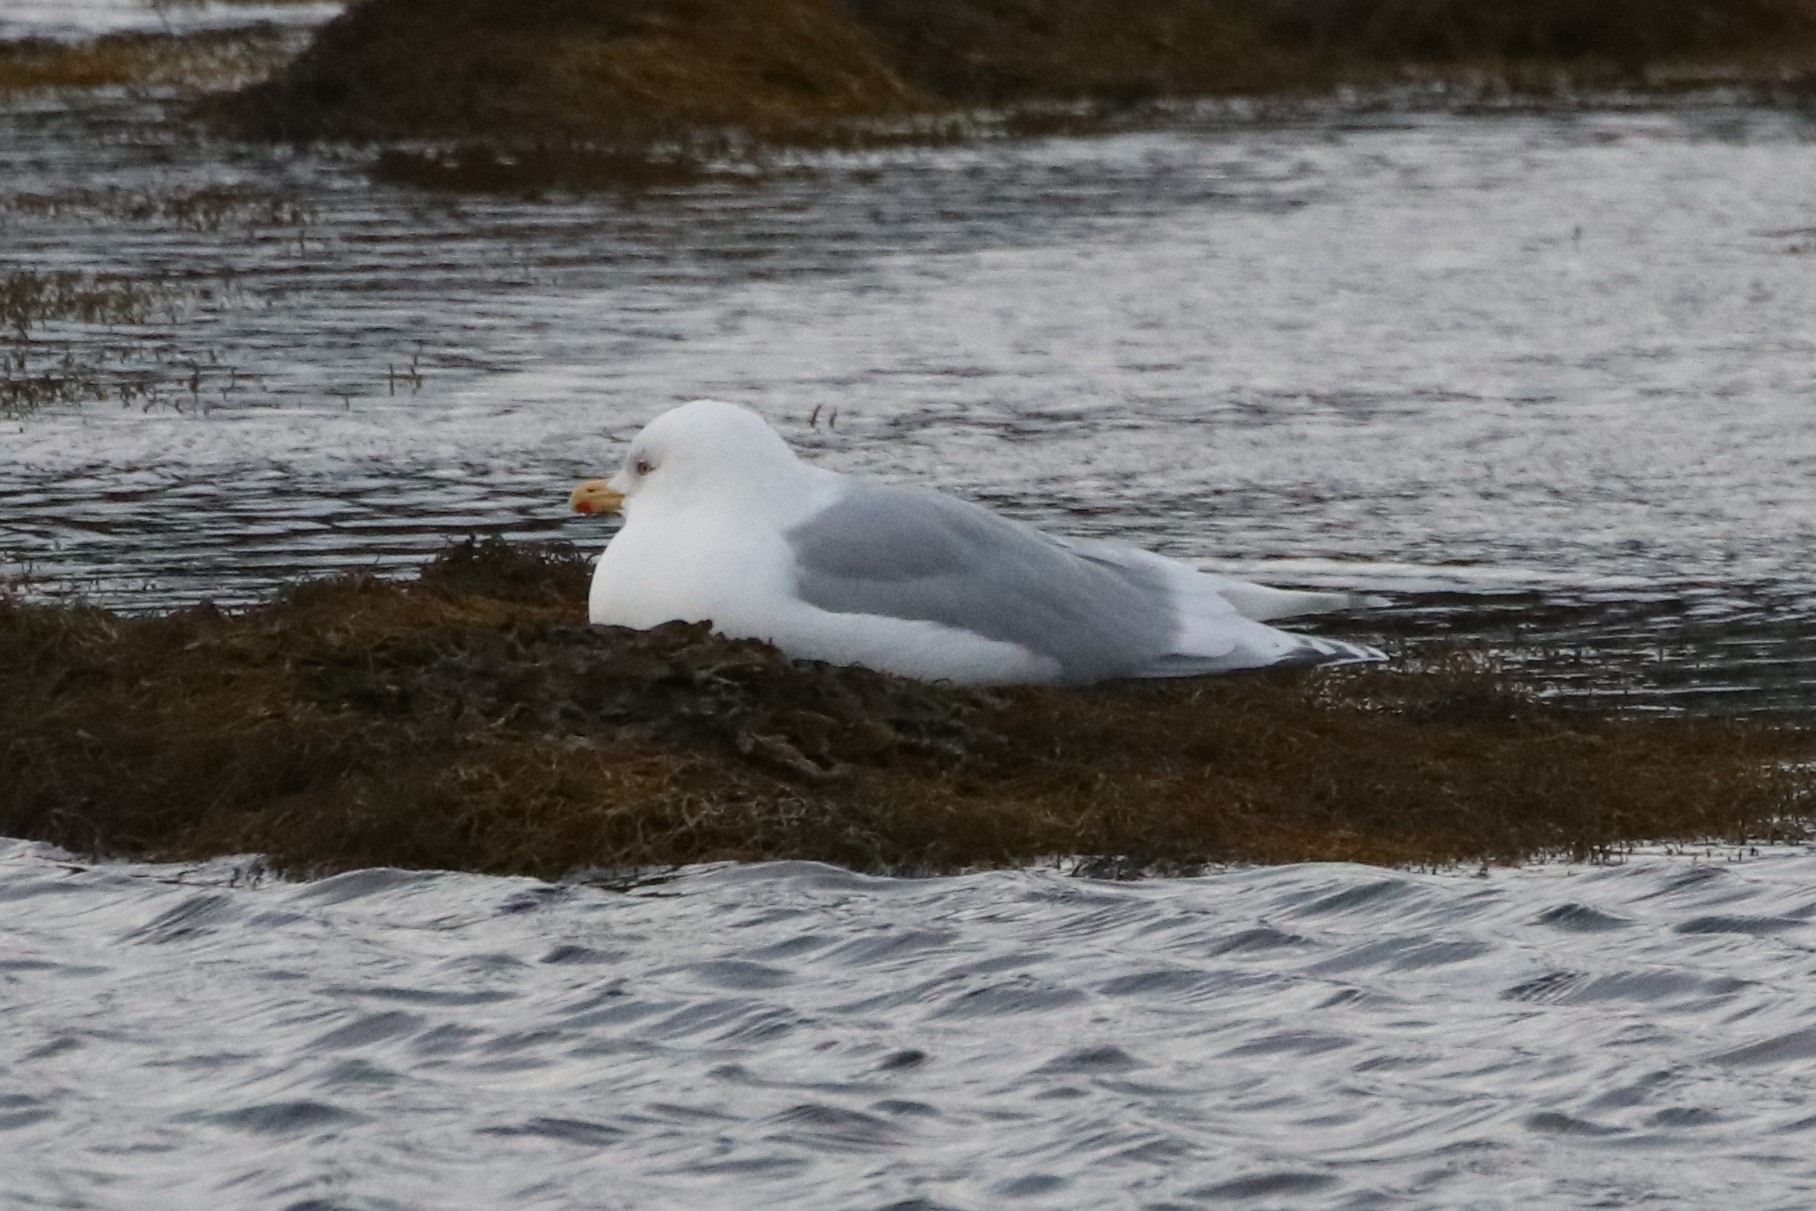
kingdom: Animalia
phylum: Chordata
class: Aves
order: Charadriiformes
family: Laridae
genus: Larus
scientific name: Larus glaucoides
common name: Iceland gull
